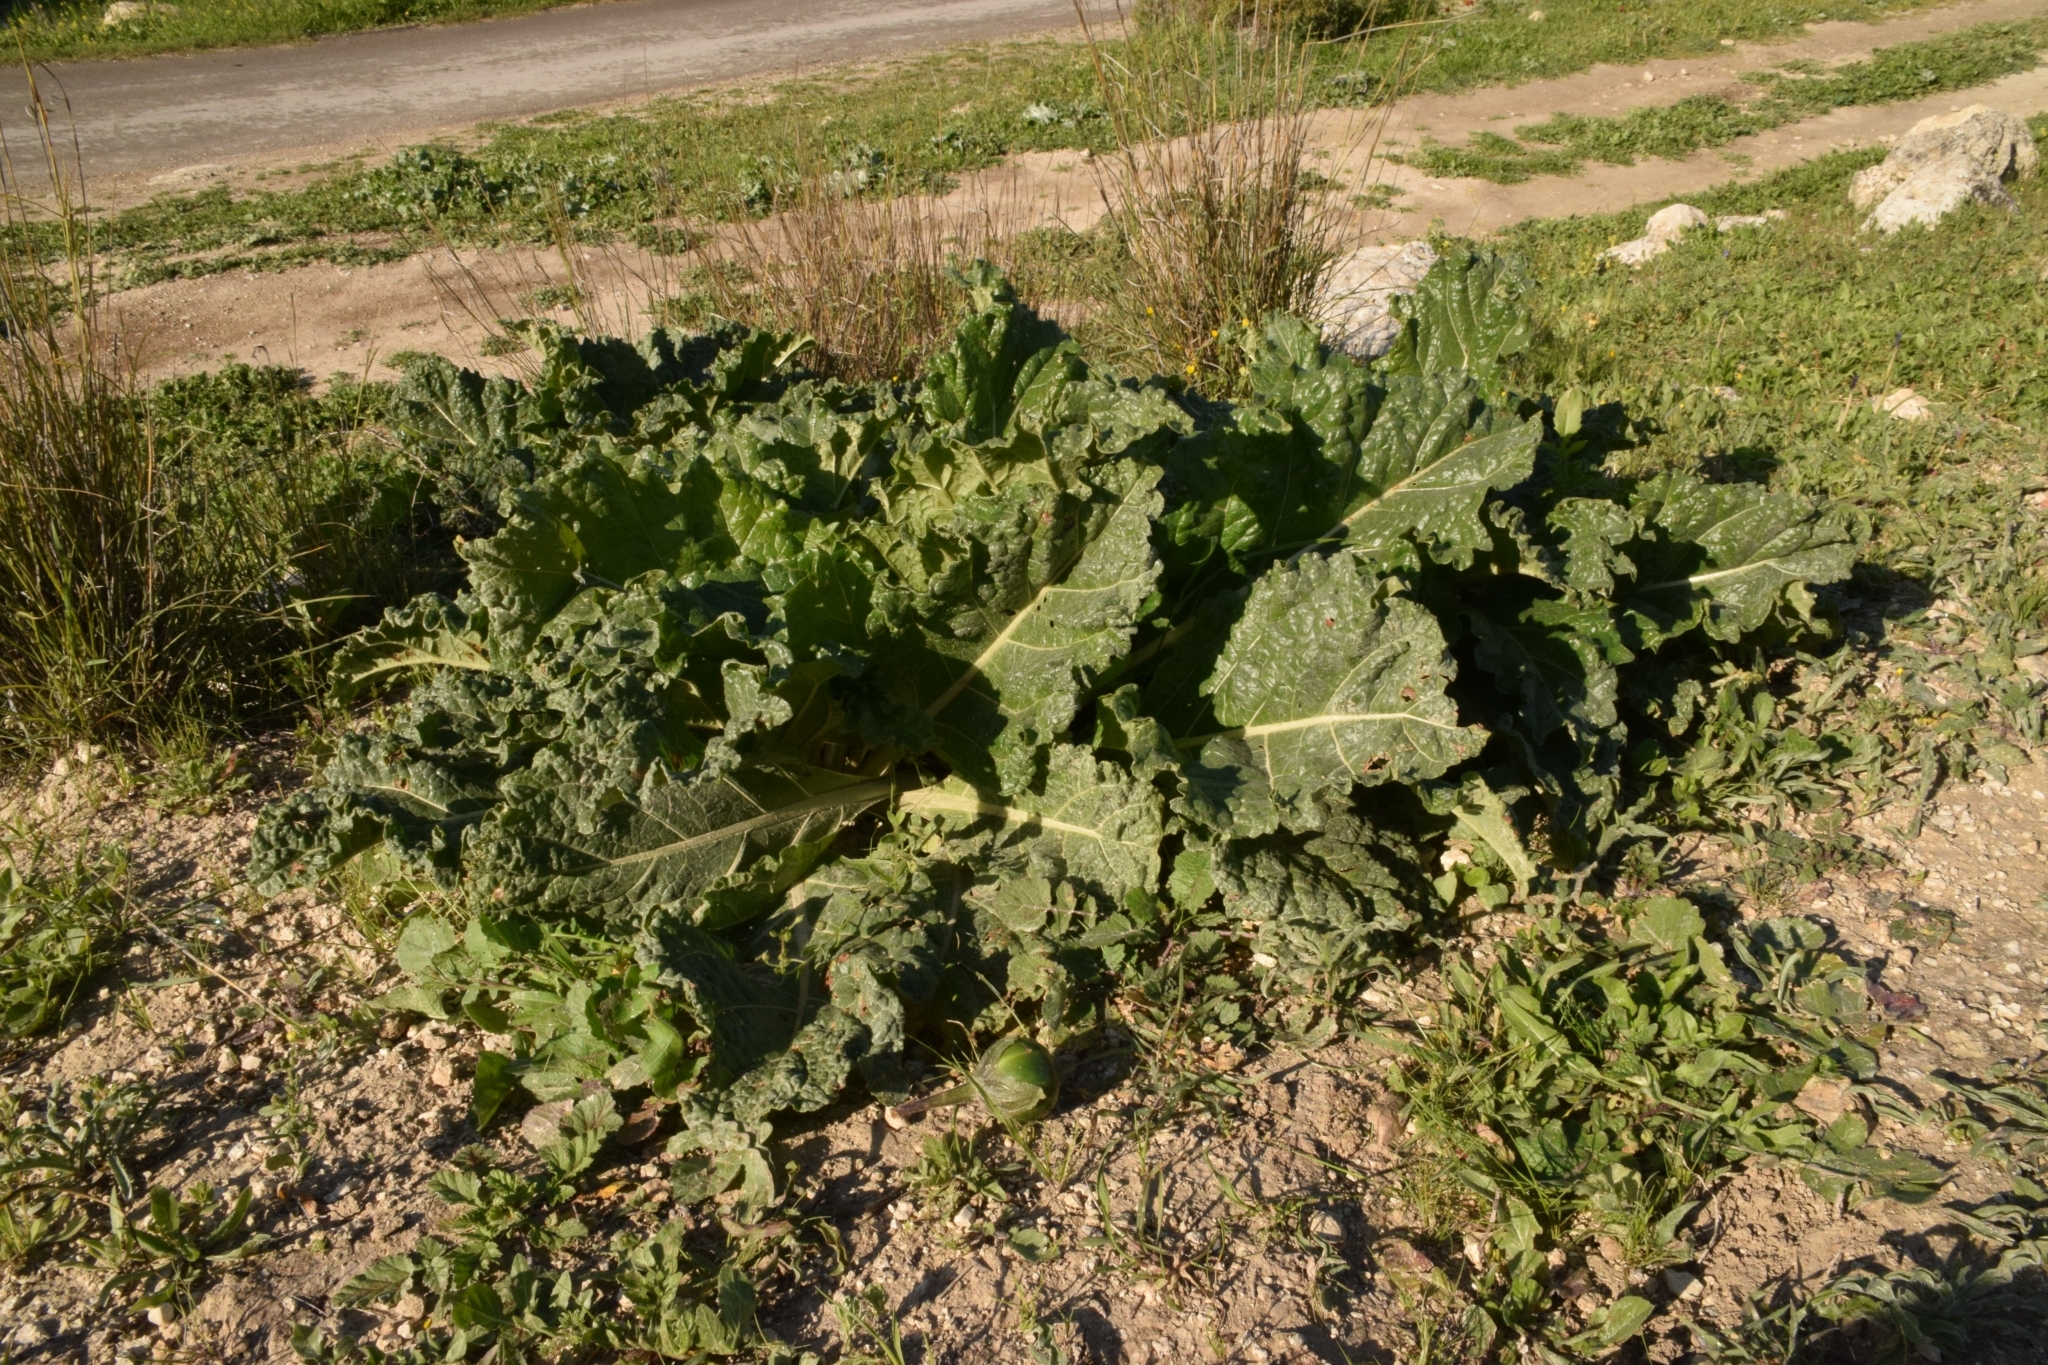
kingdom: Plantae
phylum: Tracheophyta
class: Magnoliopsida
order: Solanales
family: Solanaceae
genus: Mandragora
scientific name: Mandragora officinarum
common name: Mandrake
